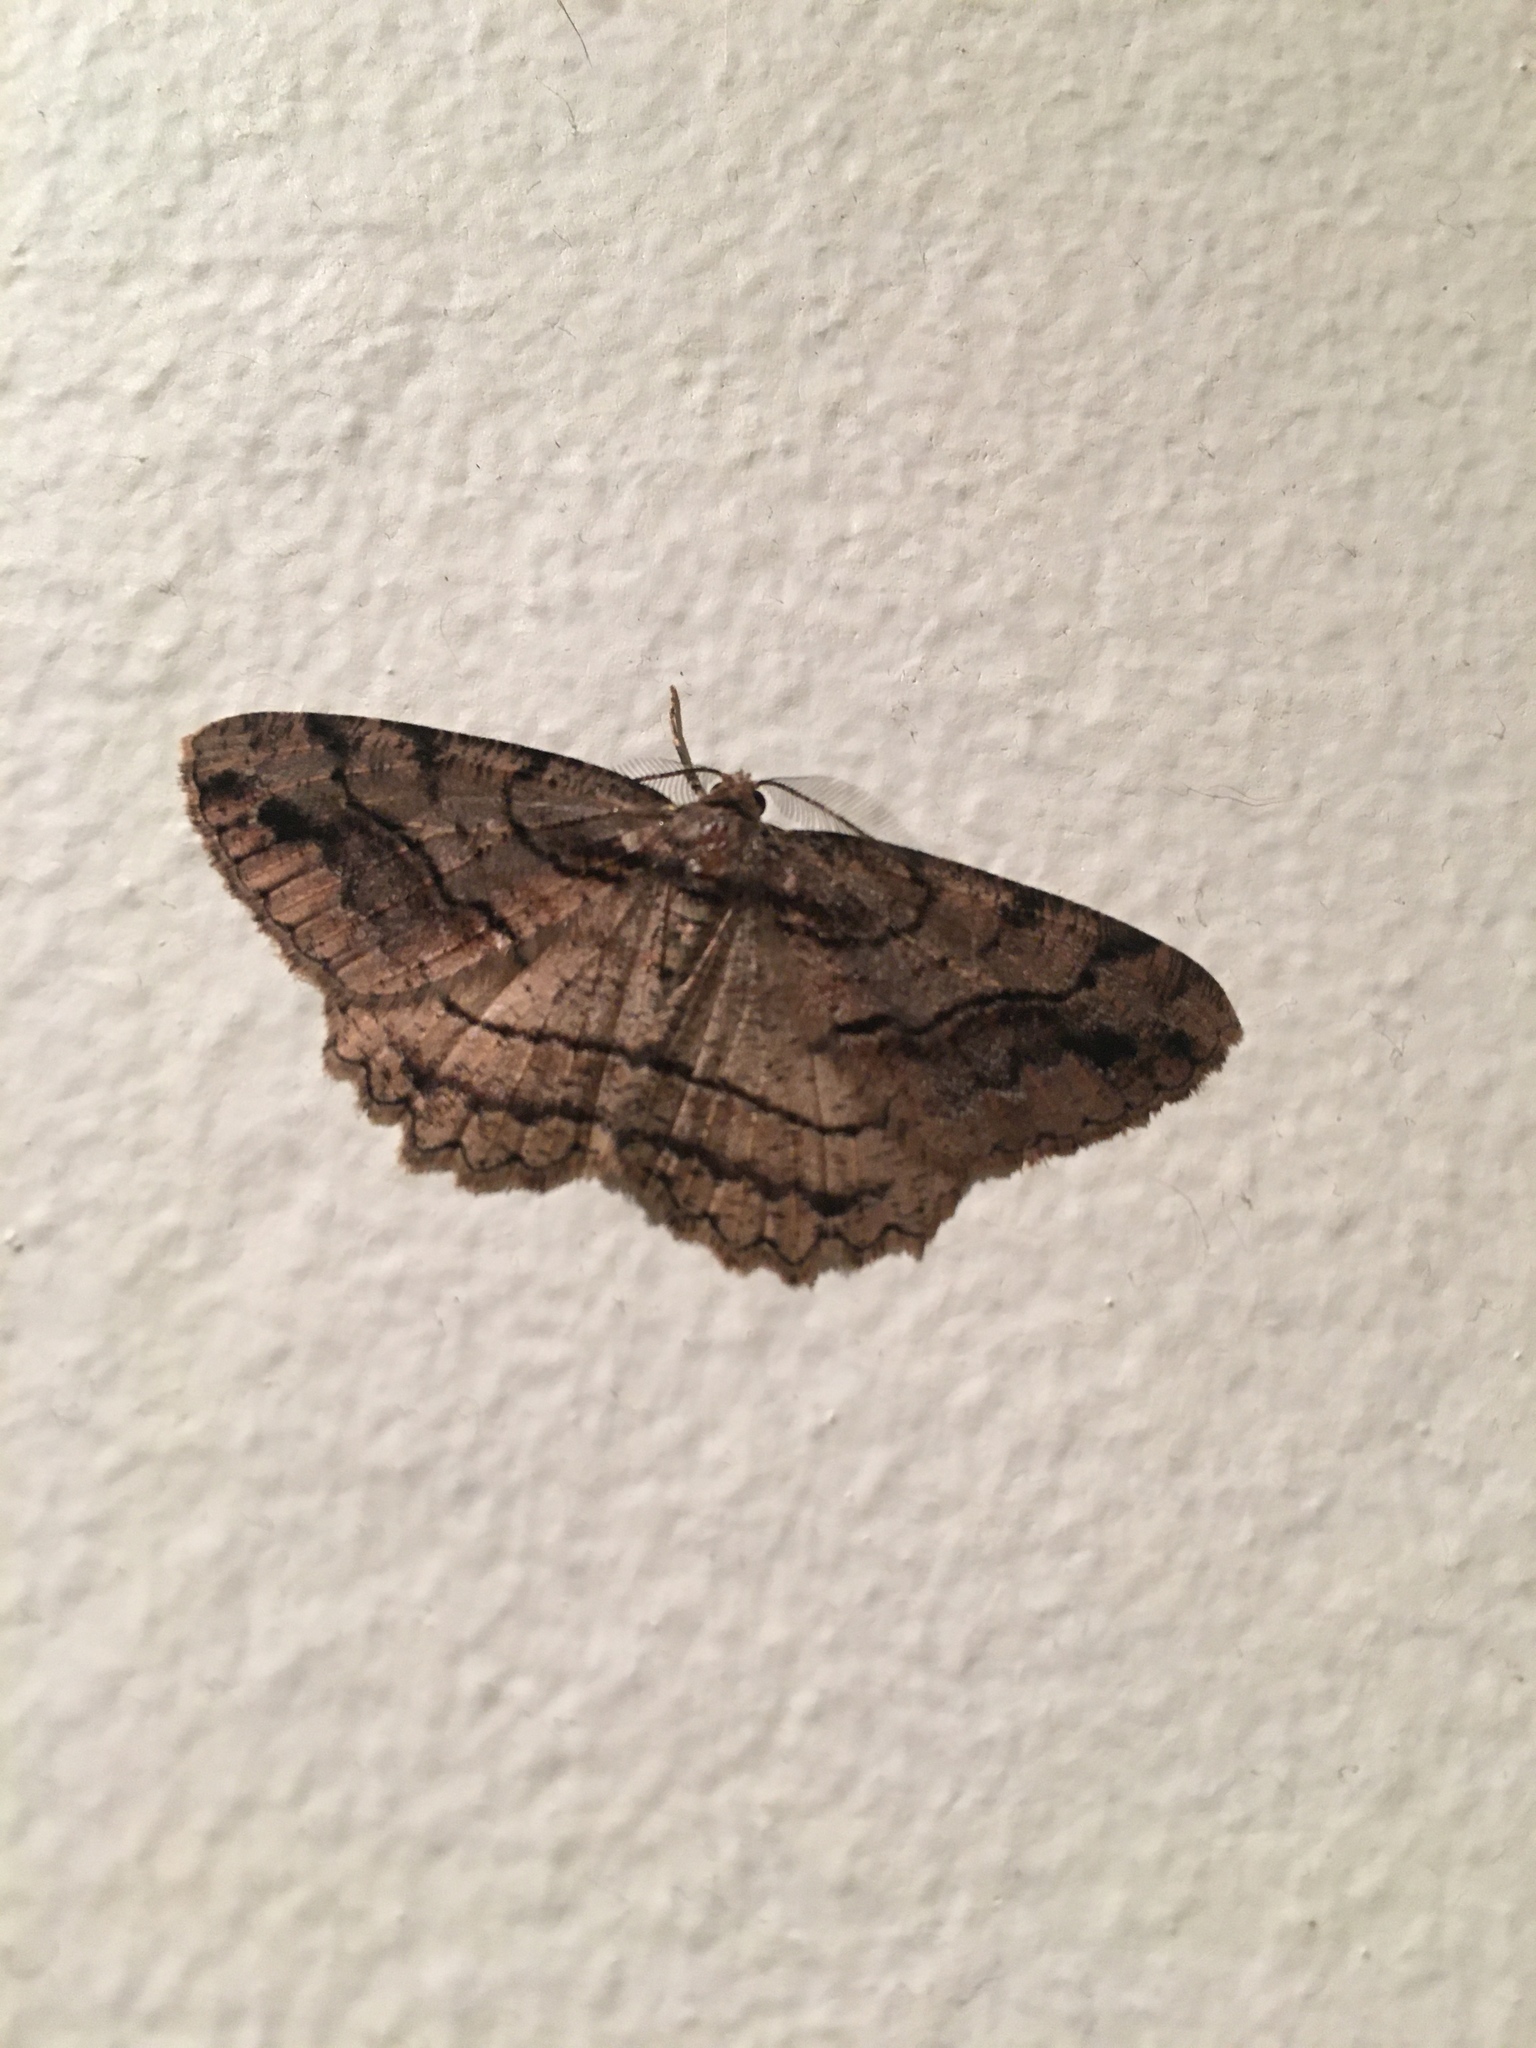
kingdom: Animalia
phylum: Arthropoda
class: Insecta
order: Lepidoptera
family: Geometridae
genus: Neoalcis
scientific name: Neoalcis californiaria
